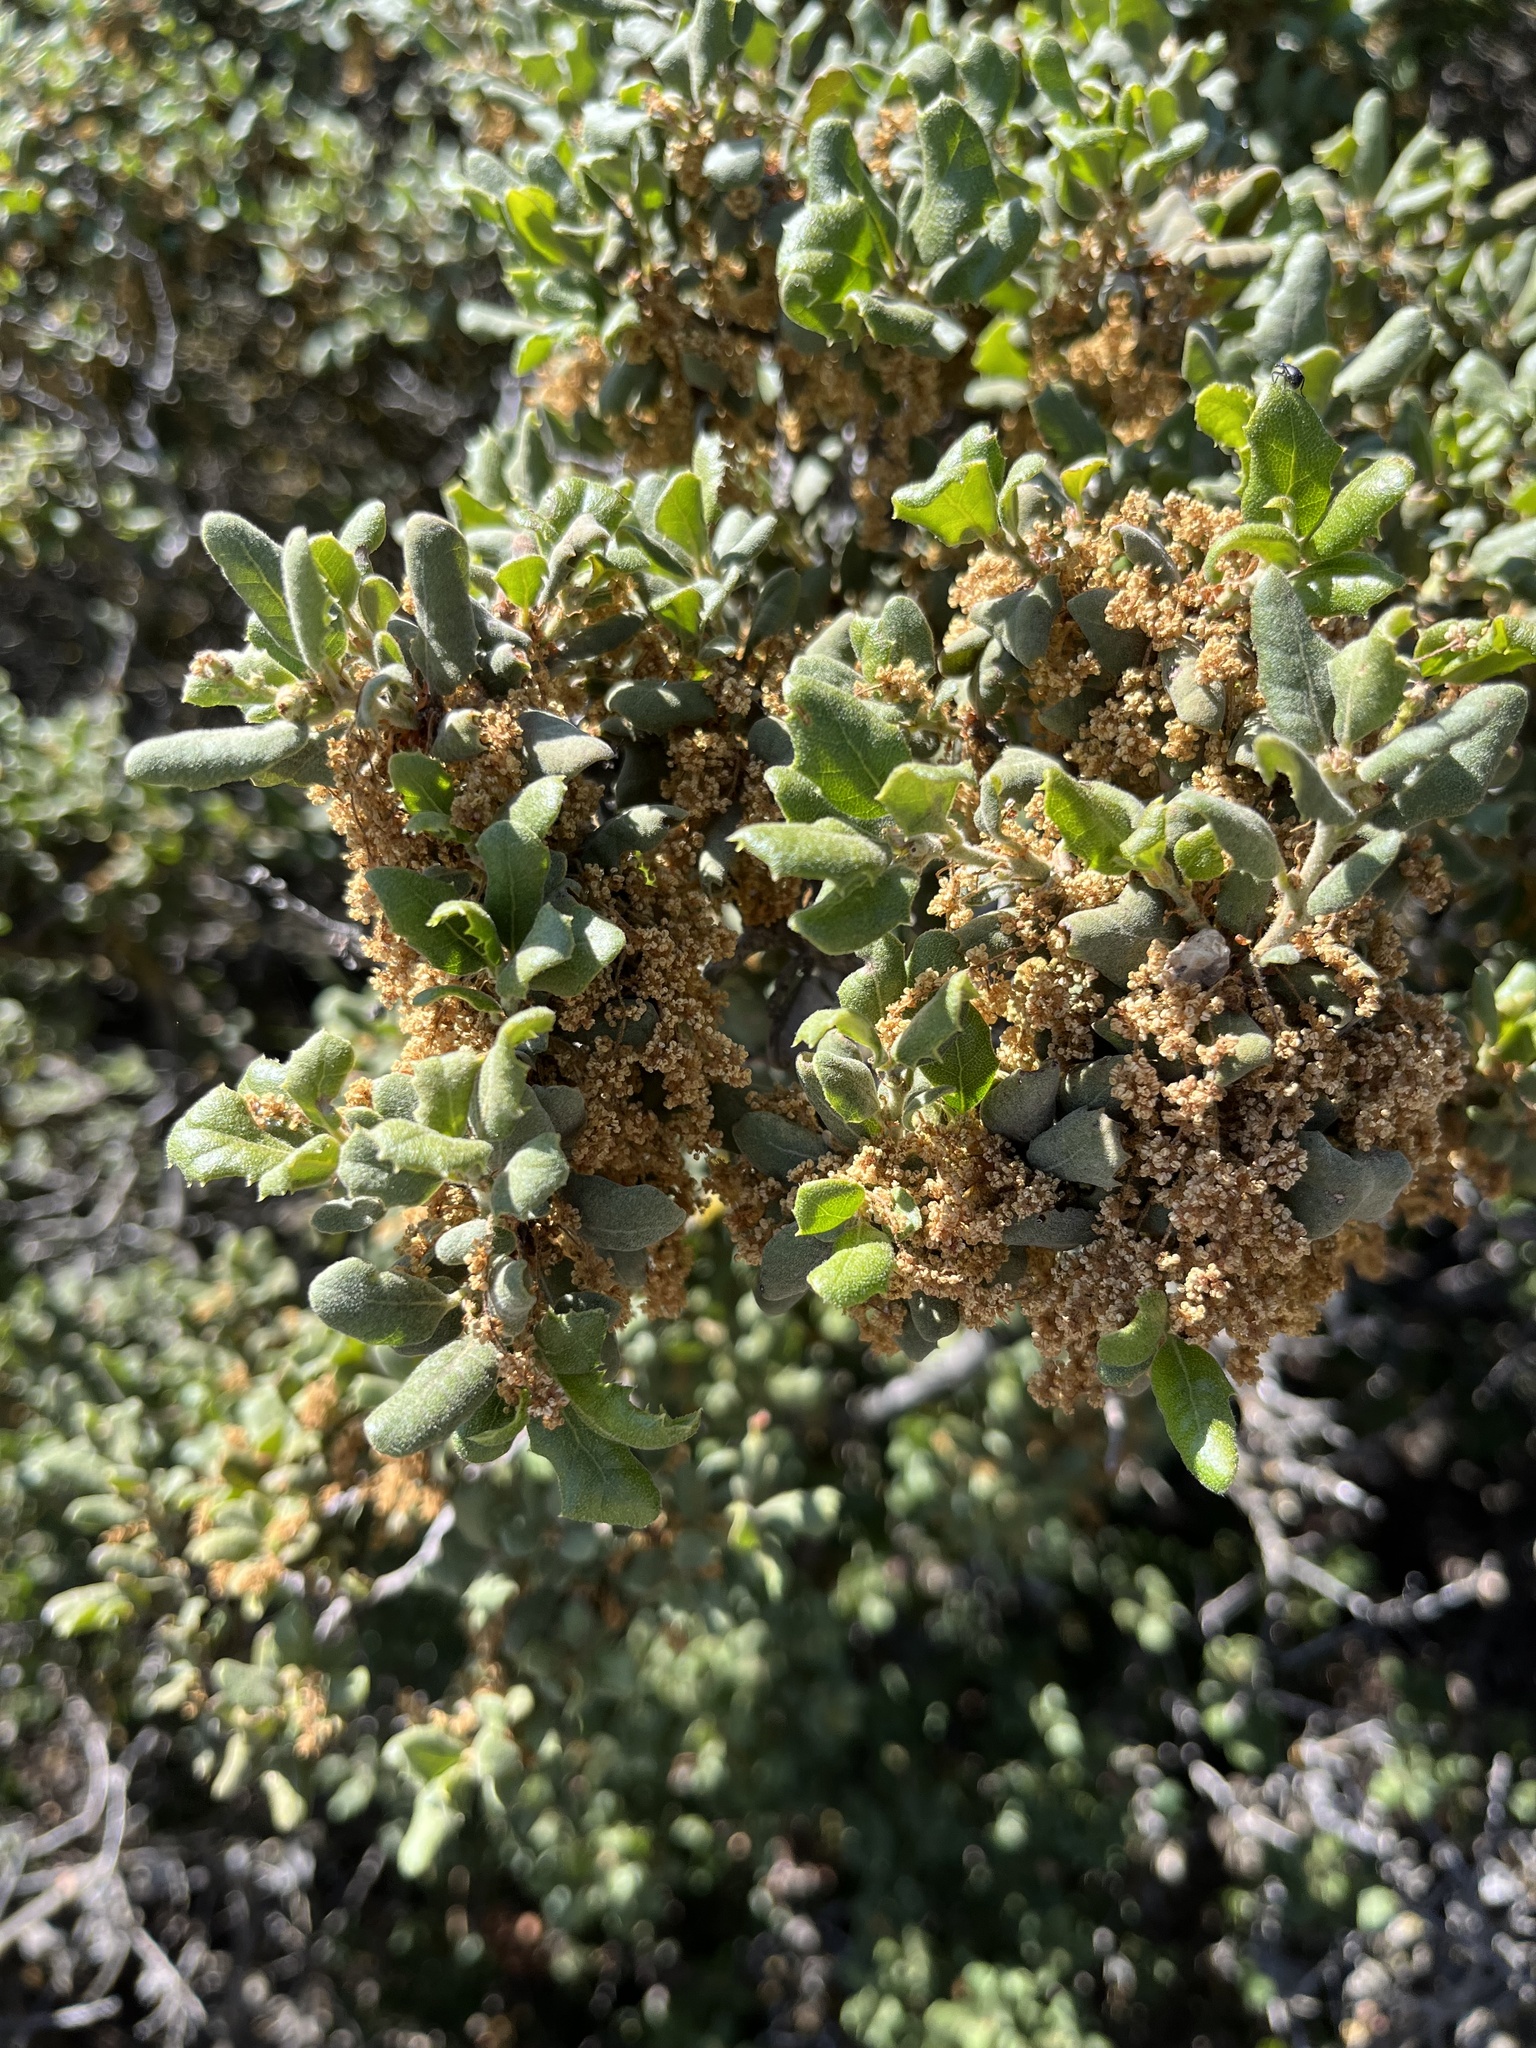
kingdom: Plantae
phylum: Tracheophyta
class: Magnoliopsida
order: Fagales
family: Fagaceae
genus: Quercus
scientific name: Quercus durata
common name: Leather oak
